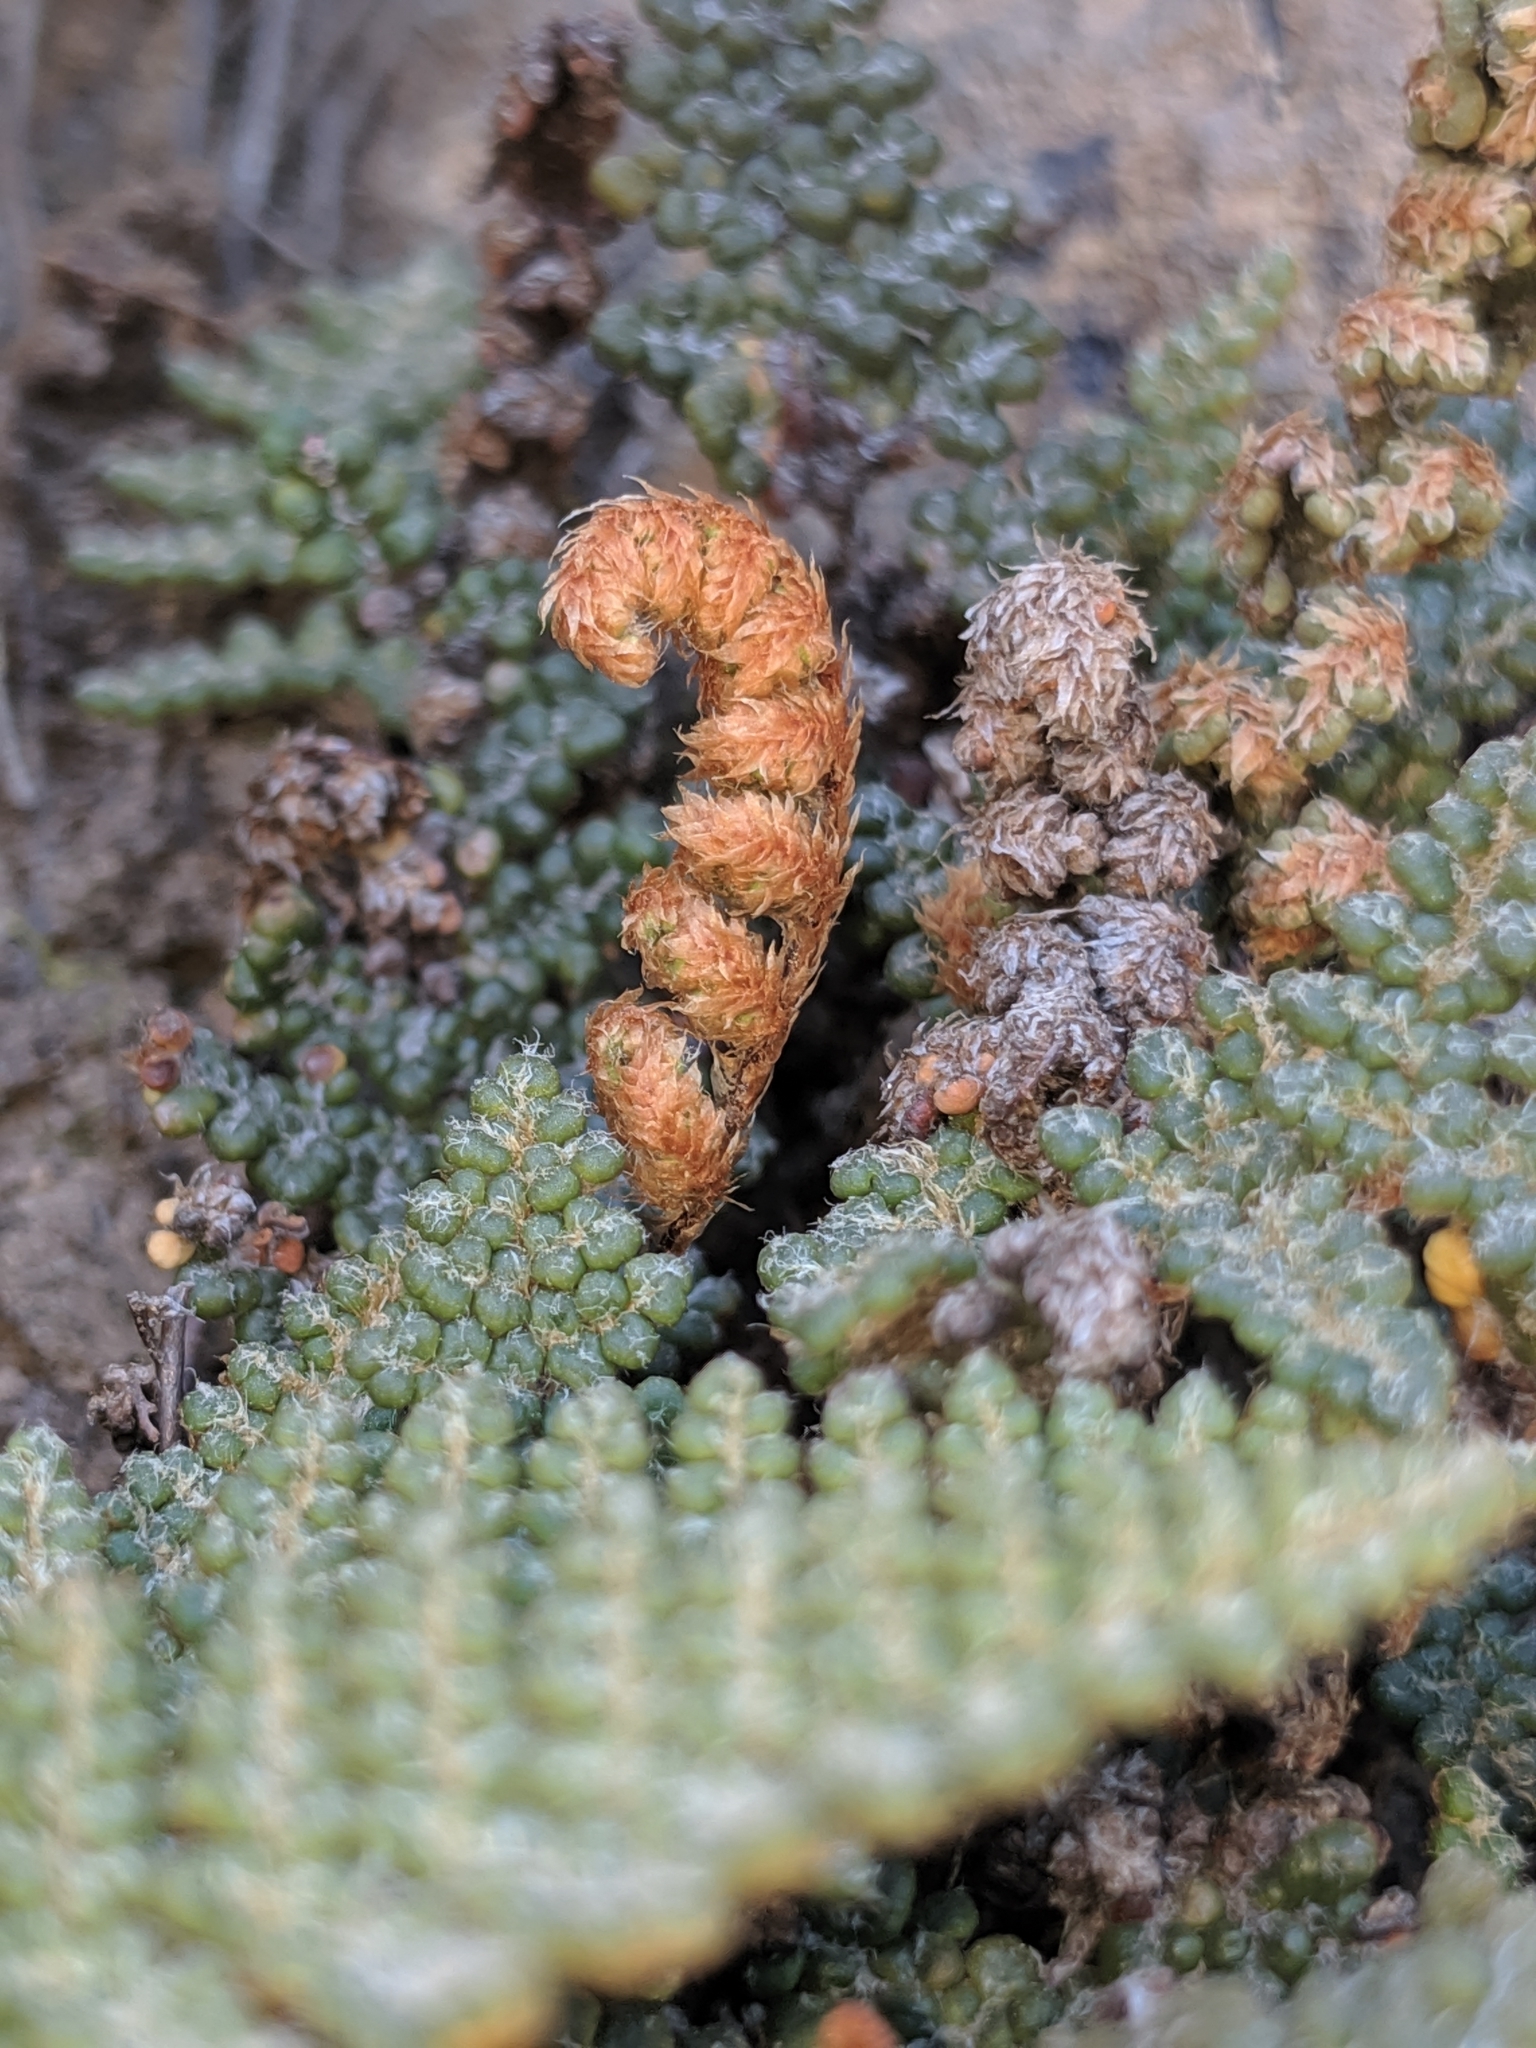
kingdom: Plantae
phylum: Tracheophyta
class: Polypodiopsida
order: Polypodiales
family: Pteridaceae
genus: Myriopteris
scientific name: Myriopteris intertexta
